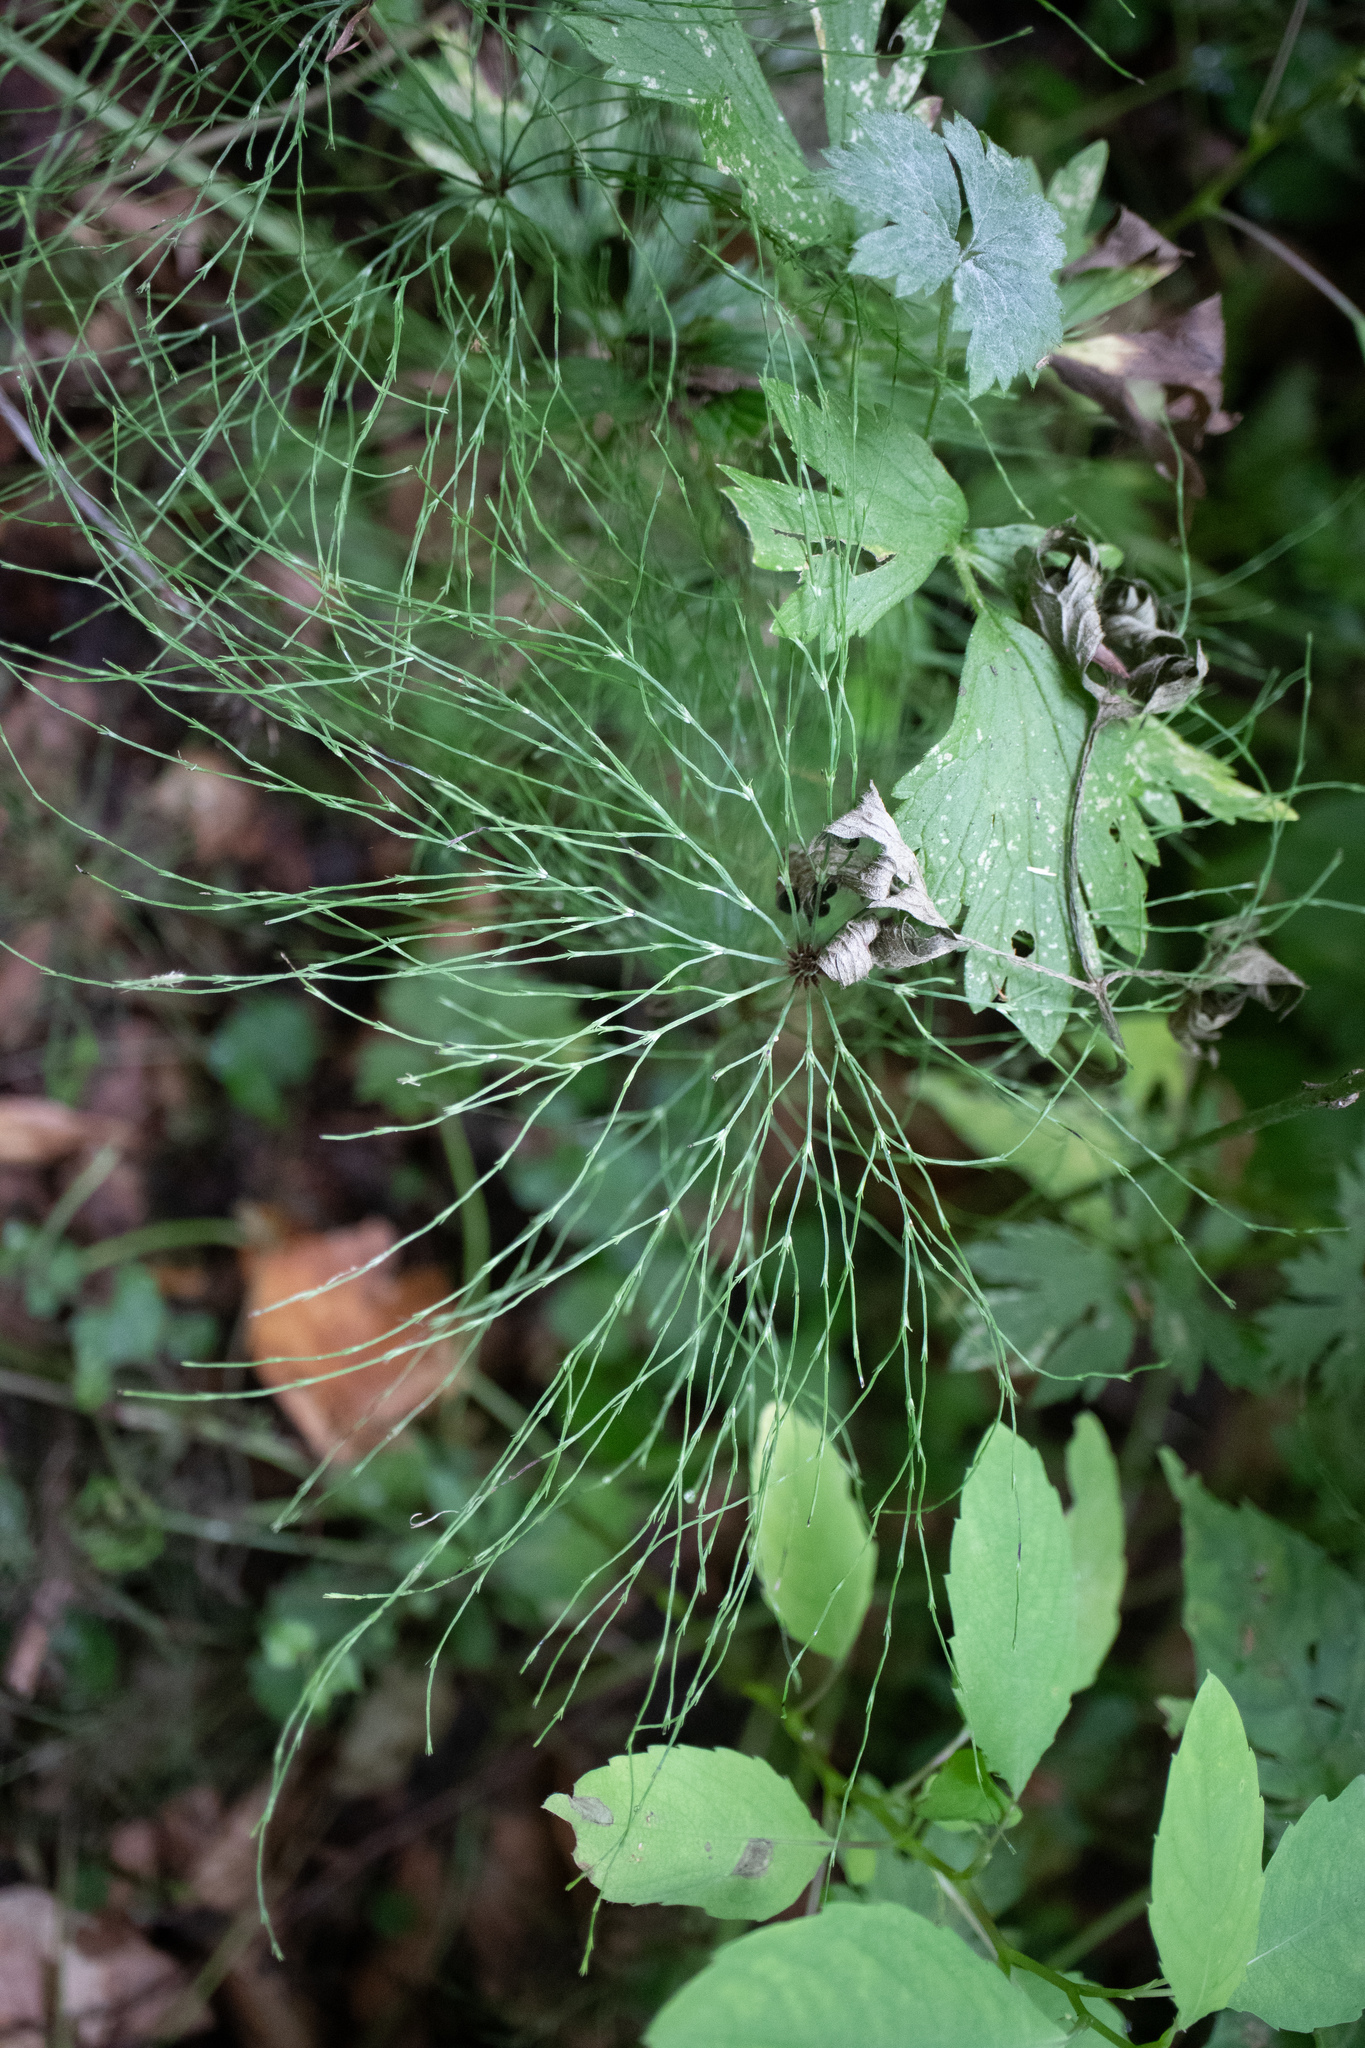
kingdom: Plantae
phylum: Tracheophyta
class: Polypodiopsida
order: Equisetales
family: Equisetaceae
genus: Equisetum
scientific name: Equisetum sylvaticum
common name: Wood horsetail
